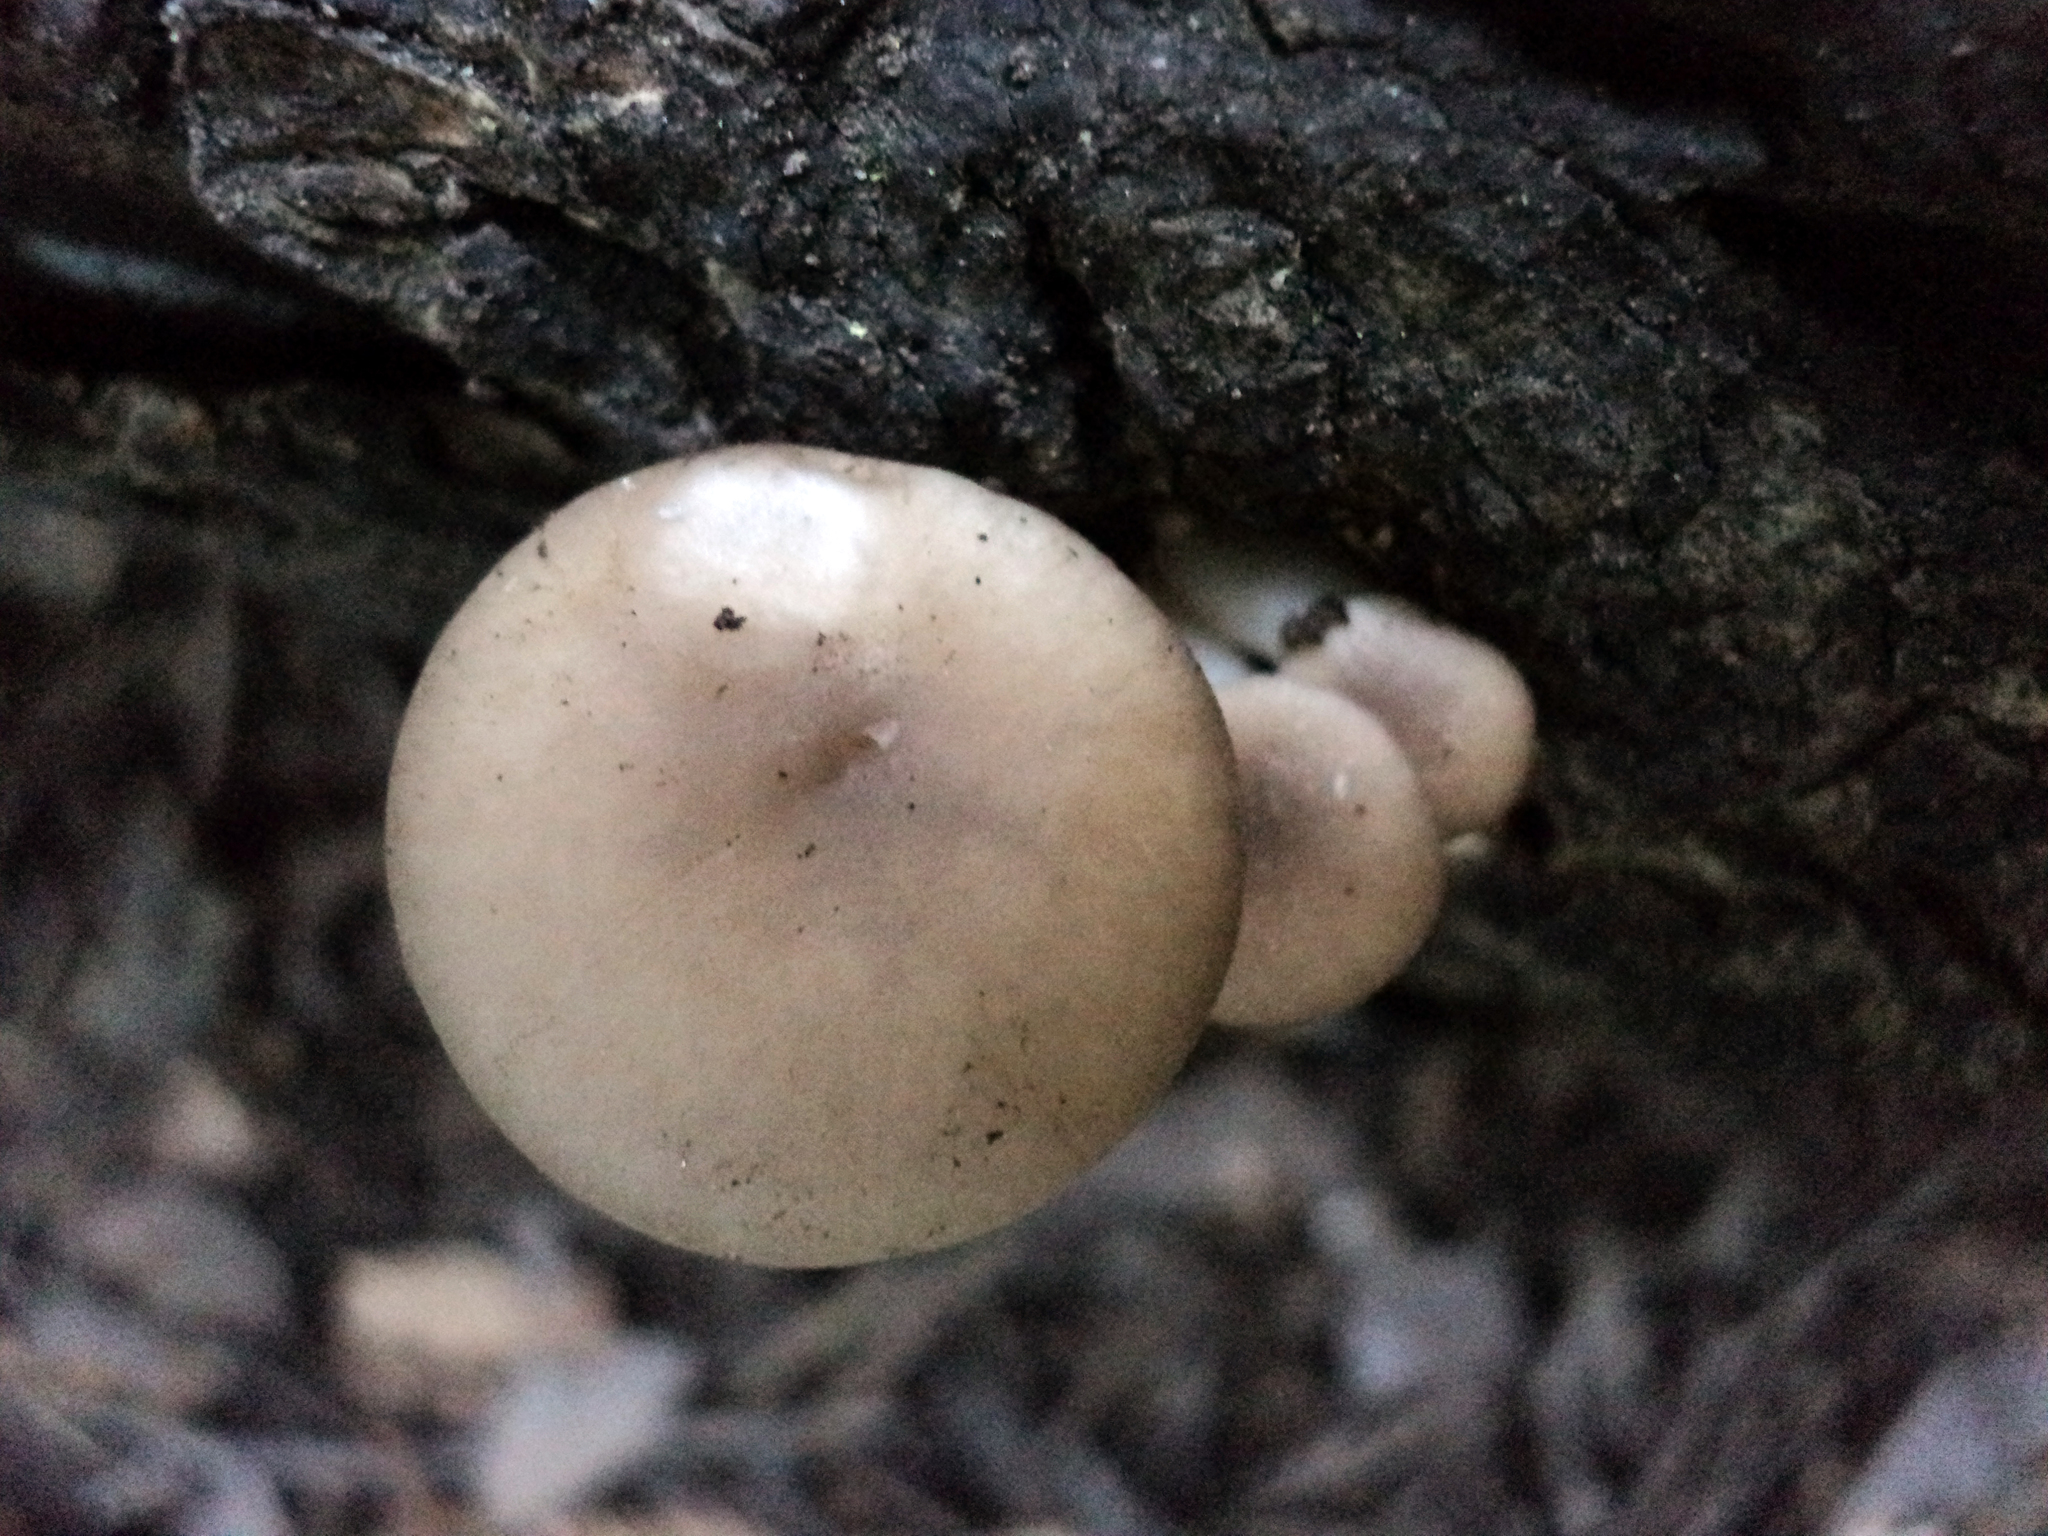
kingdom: Fungi
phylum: Basidiomycota
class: Agaricomycetes
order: Agaricales
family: Pleurotaceae
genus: Pleurotus
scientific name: Pleurotus ostreatus
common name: Oyster mushroom
